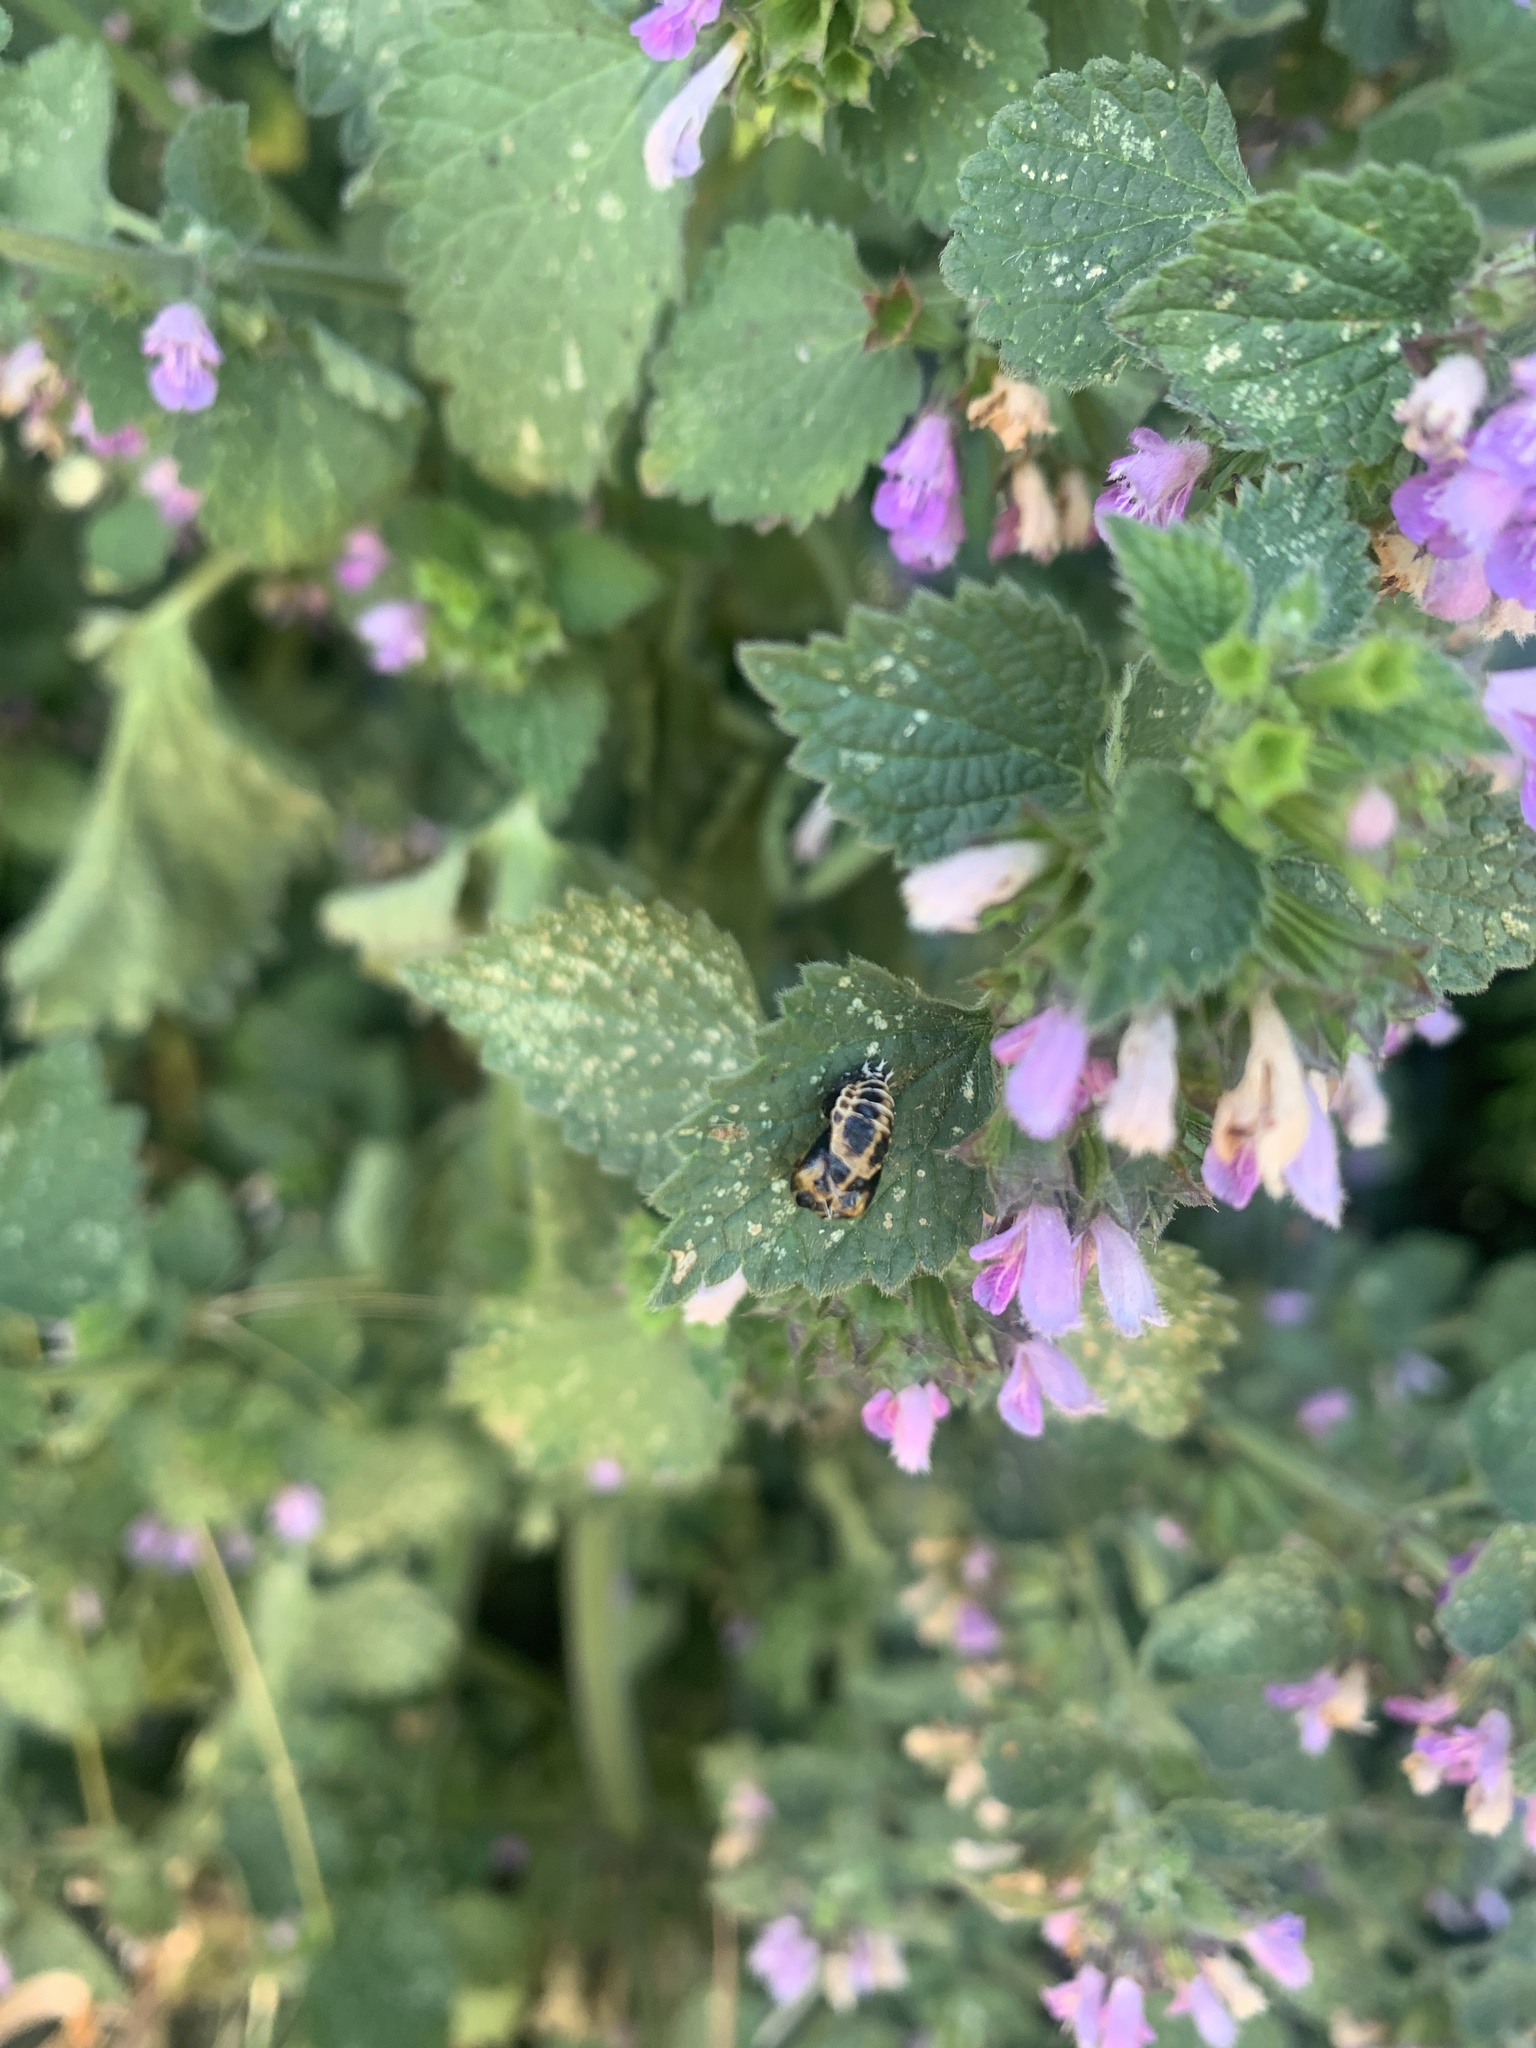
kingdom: Animalia
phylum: Arthropoda
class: Insecta
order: Coleoptera
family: Coccinellidae
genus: Harmonia
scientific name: Harmonia axyridis
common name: Harlequin ladybird
